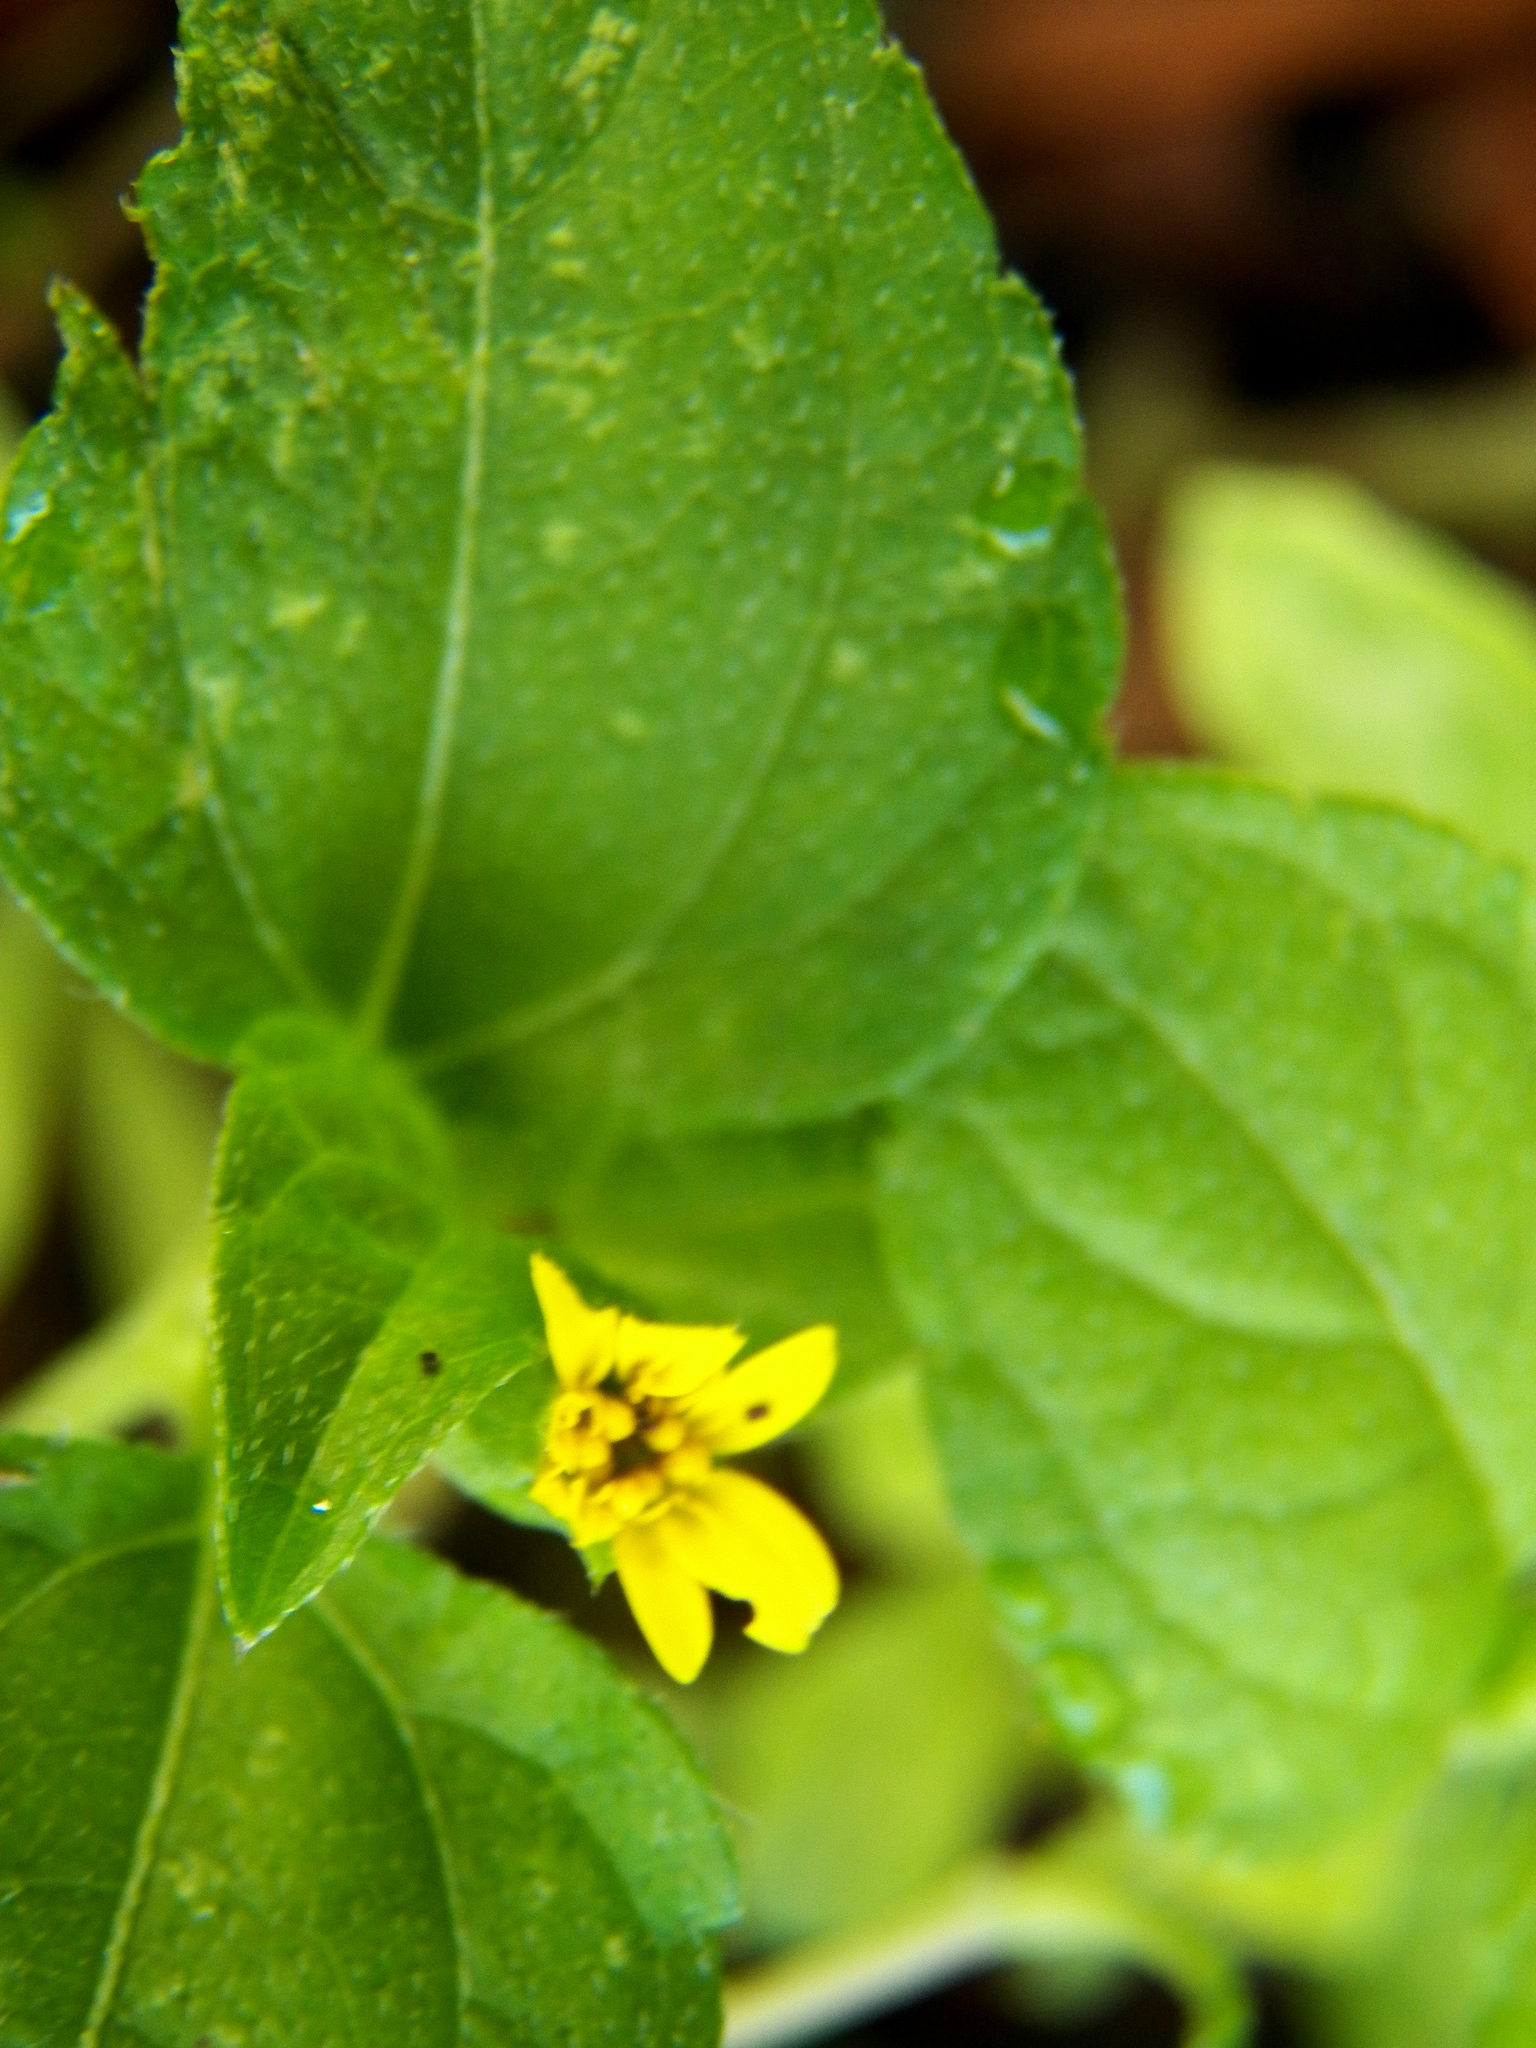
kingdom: Plantae
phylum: Tracheophyta
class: Magnoliopsida
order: Asterales
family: Asteraceae
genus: Calyptocarpus
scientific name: Calyptocarpus vialis
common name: Straggler daisy
